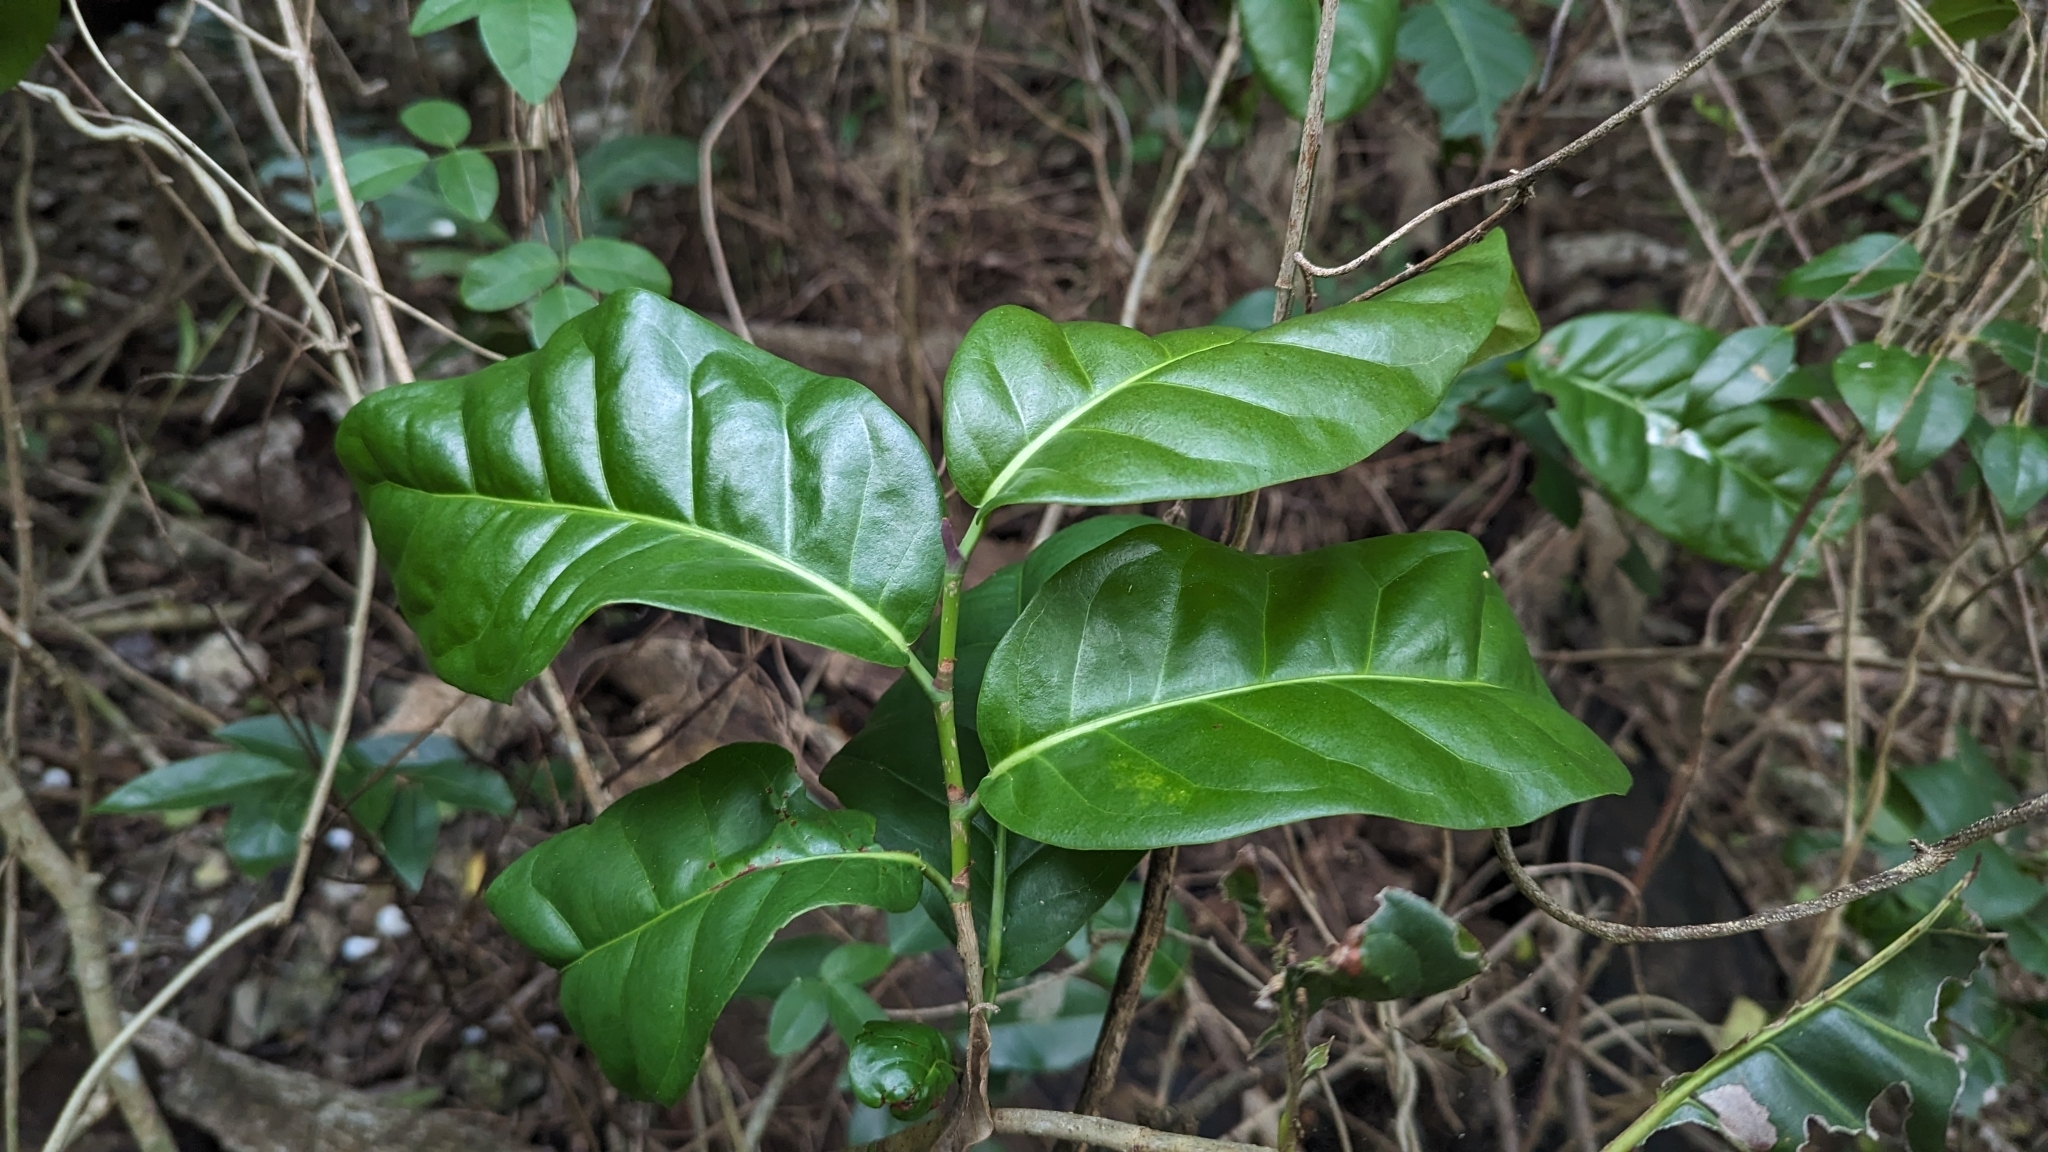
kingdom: Plantae
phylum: Tracheophyta
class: Magnoliopsida
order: Caryophyllales
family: Polygonaceae
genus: Coccoloba
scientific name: Coccoloba diversifolia
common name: Pigeon-plum
